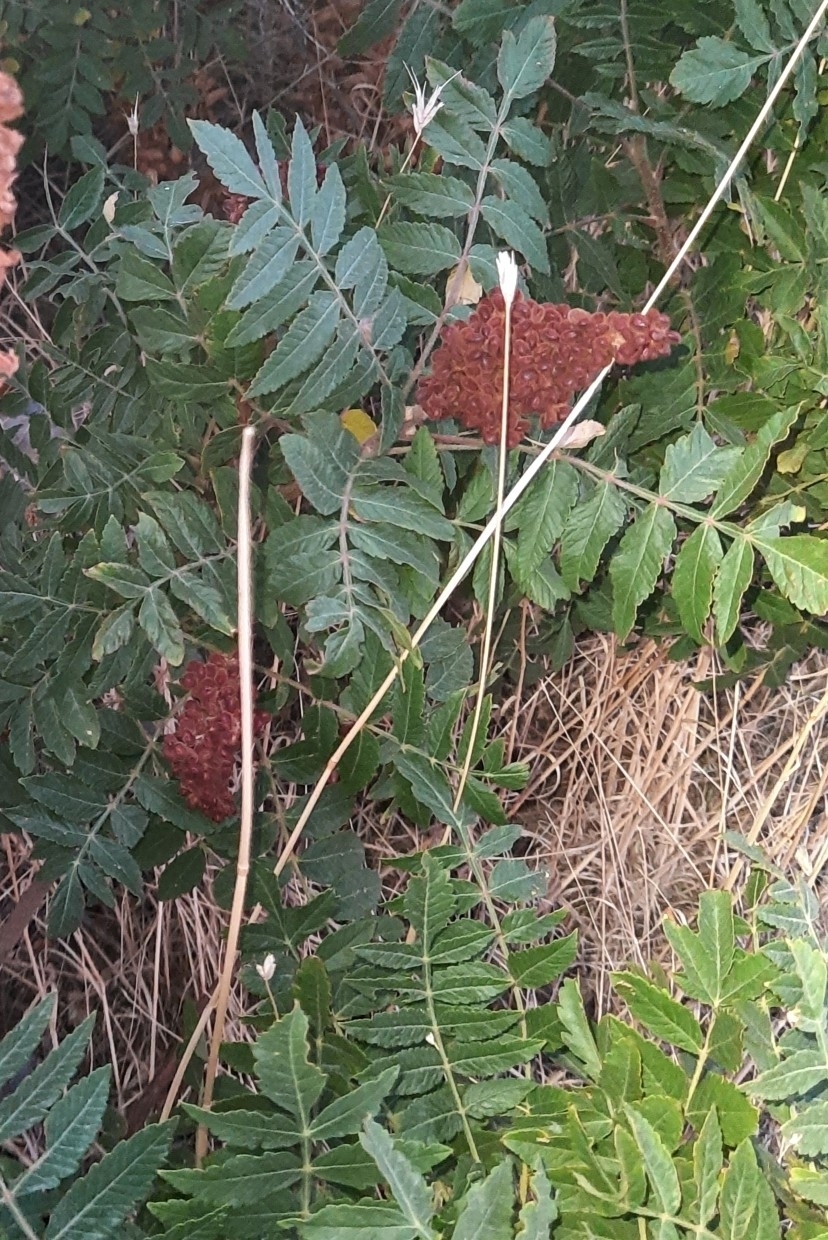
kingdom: Plantae
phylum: Tracheophyta
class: Magnoliopsida
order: Sapindales
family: Anacardiaceae
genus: Rhus
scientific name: Rhus coriaria
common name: Tanner's sumach
